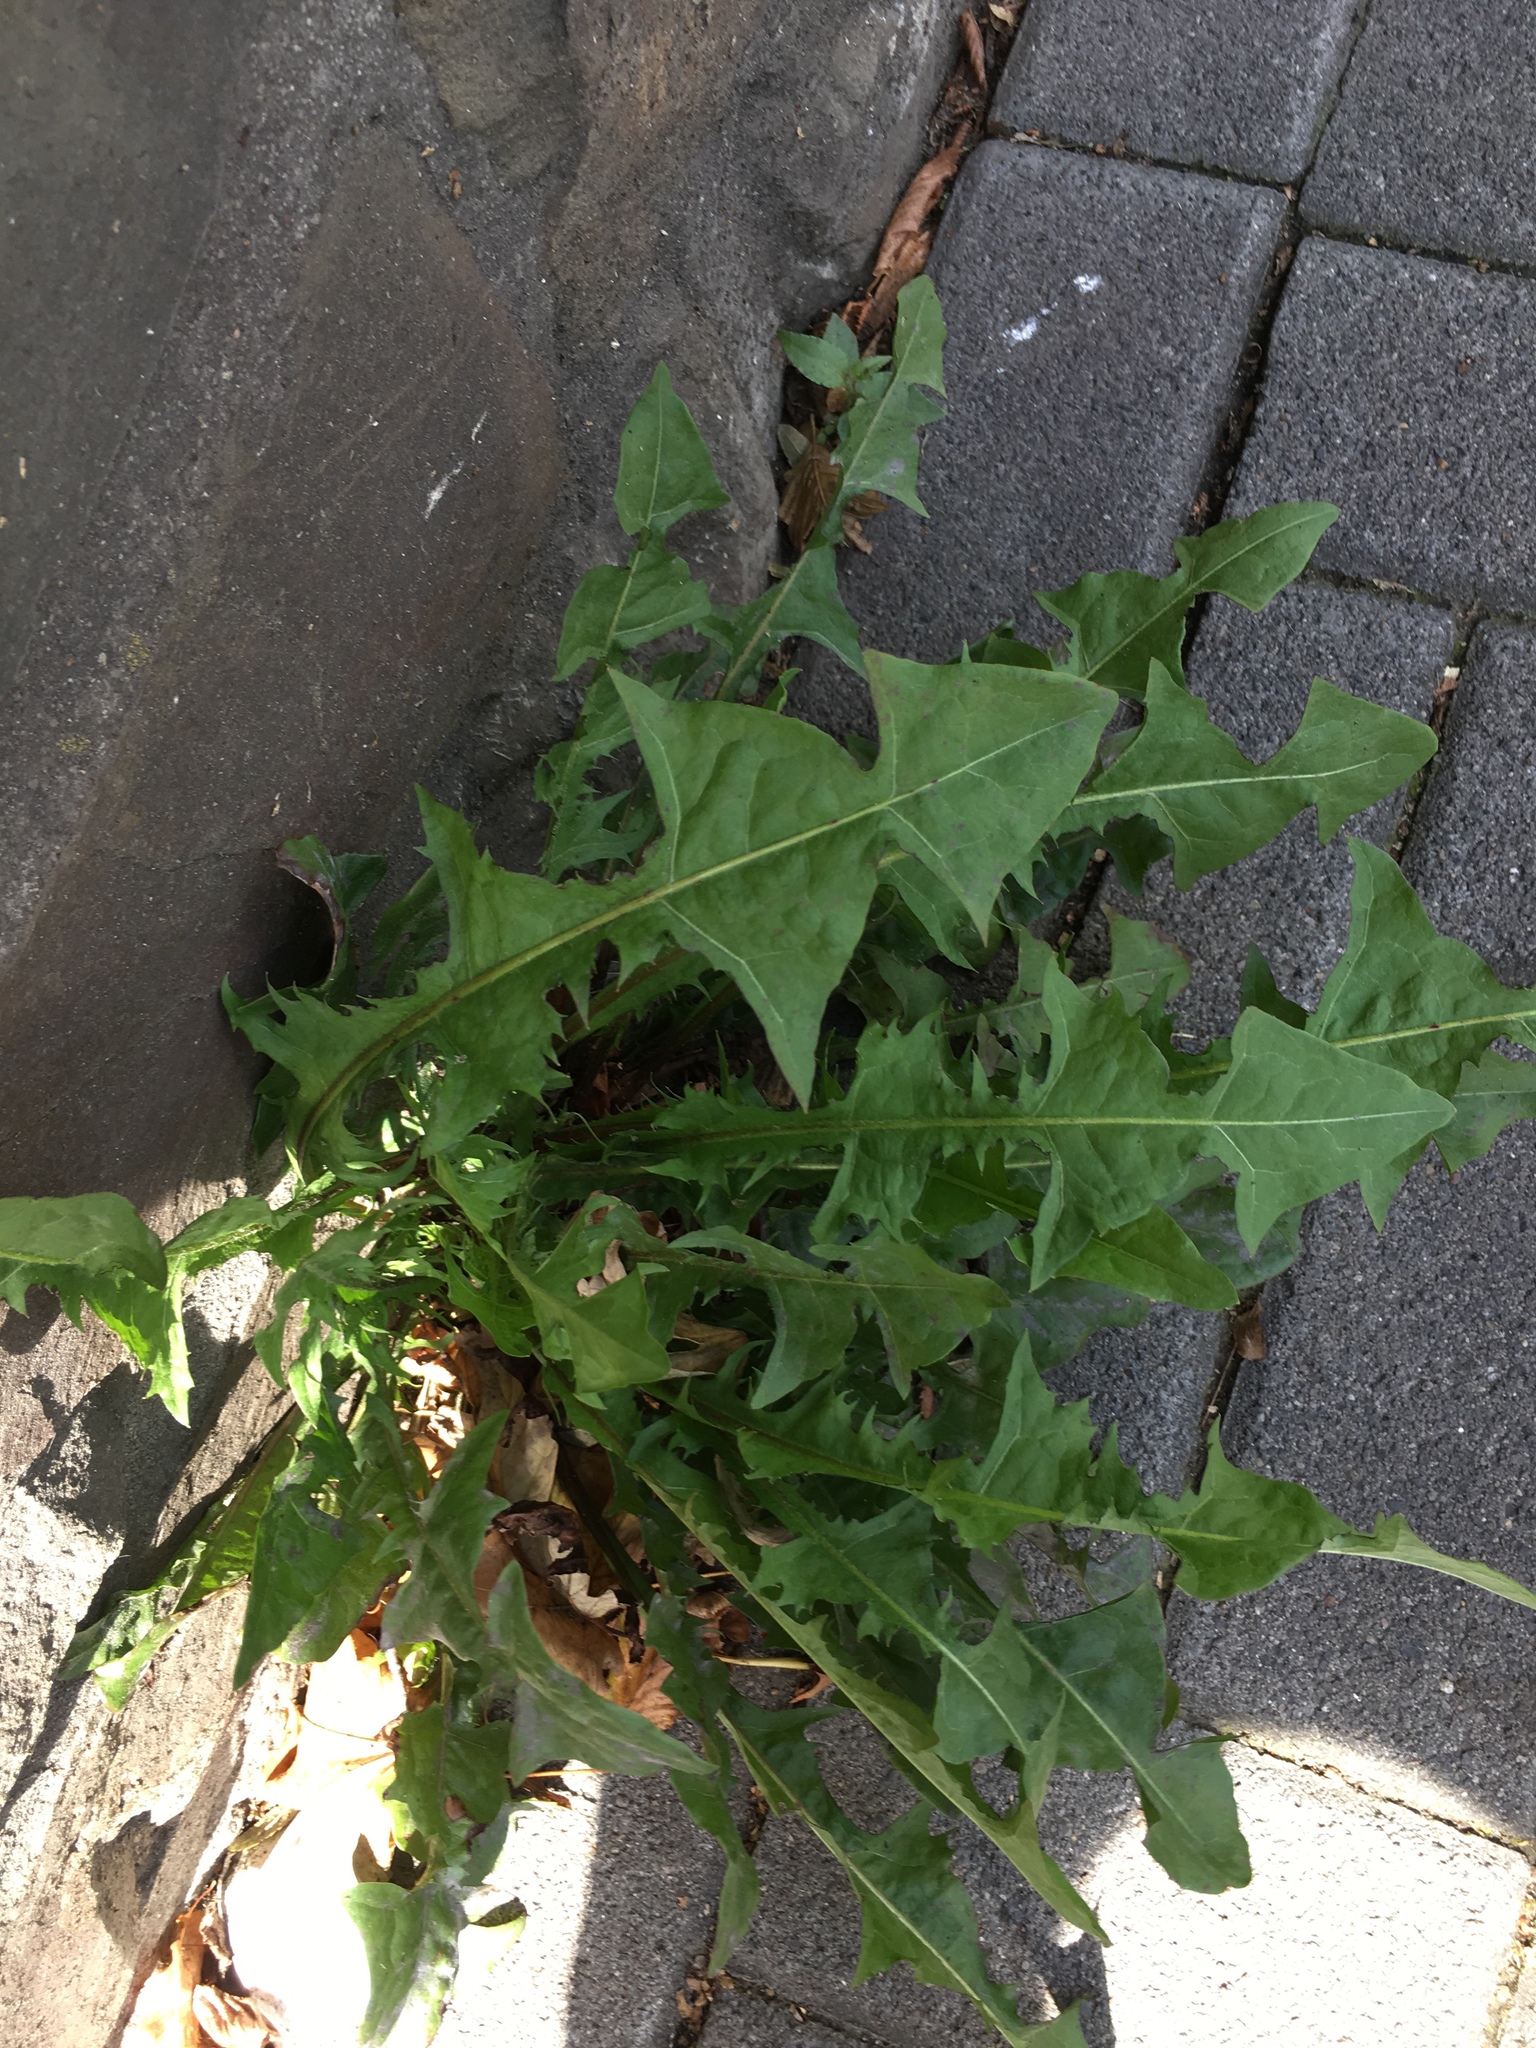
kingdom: Plantae
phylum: Tracheophyta
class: Magnoliopsida
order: Asterales
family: Asteraceae
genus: Taraxacum
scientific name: Taraxacum officinale
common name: Common dandelion
